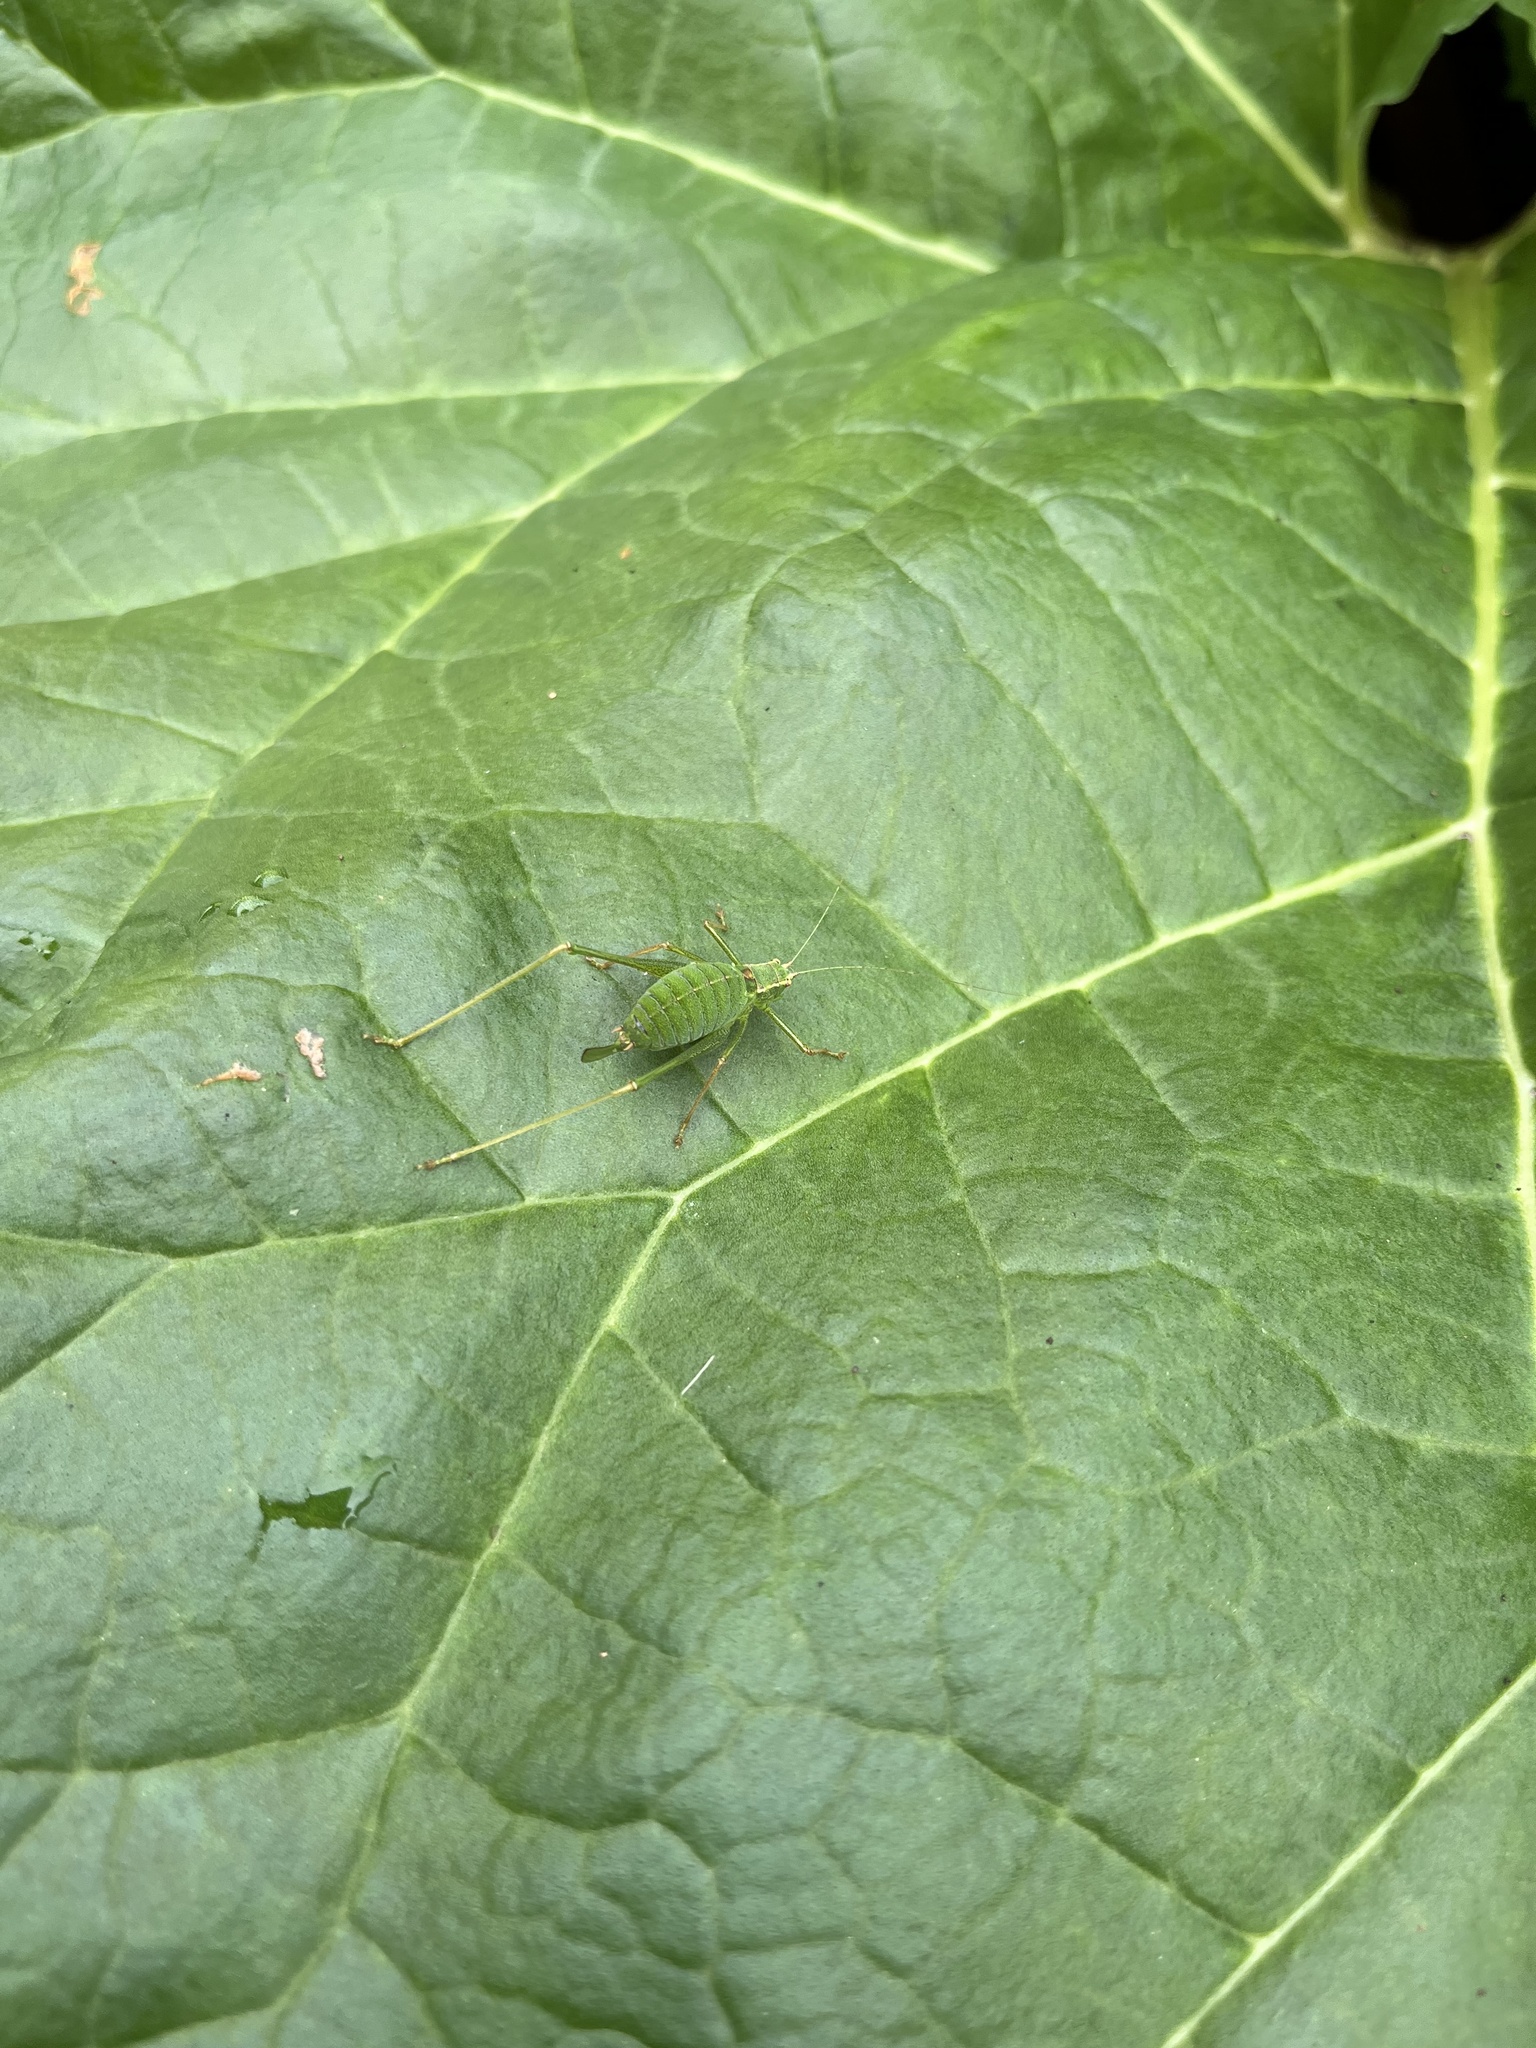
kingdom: Animalia
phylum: Arthropoda
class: Insecta
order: Orthoptera
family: Tettigoniidae
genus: Leptophyes
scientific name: Leptophyes punctatissima
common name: Speckled bush-cricket
